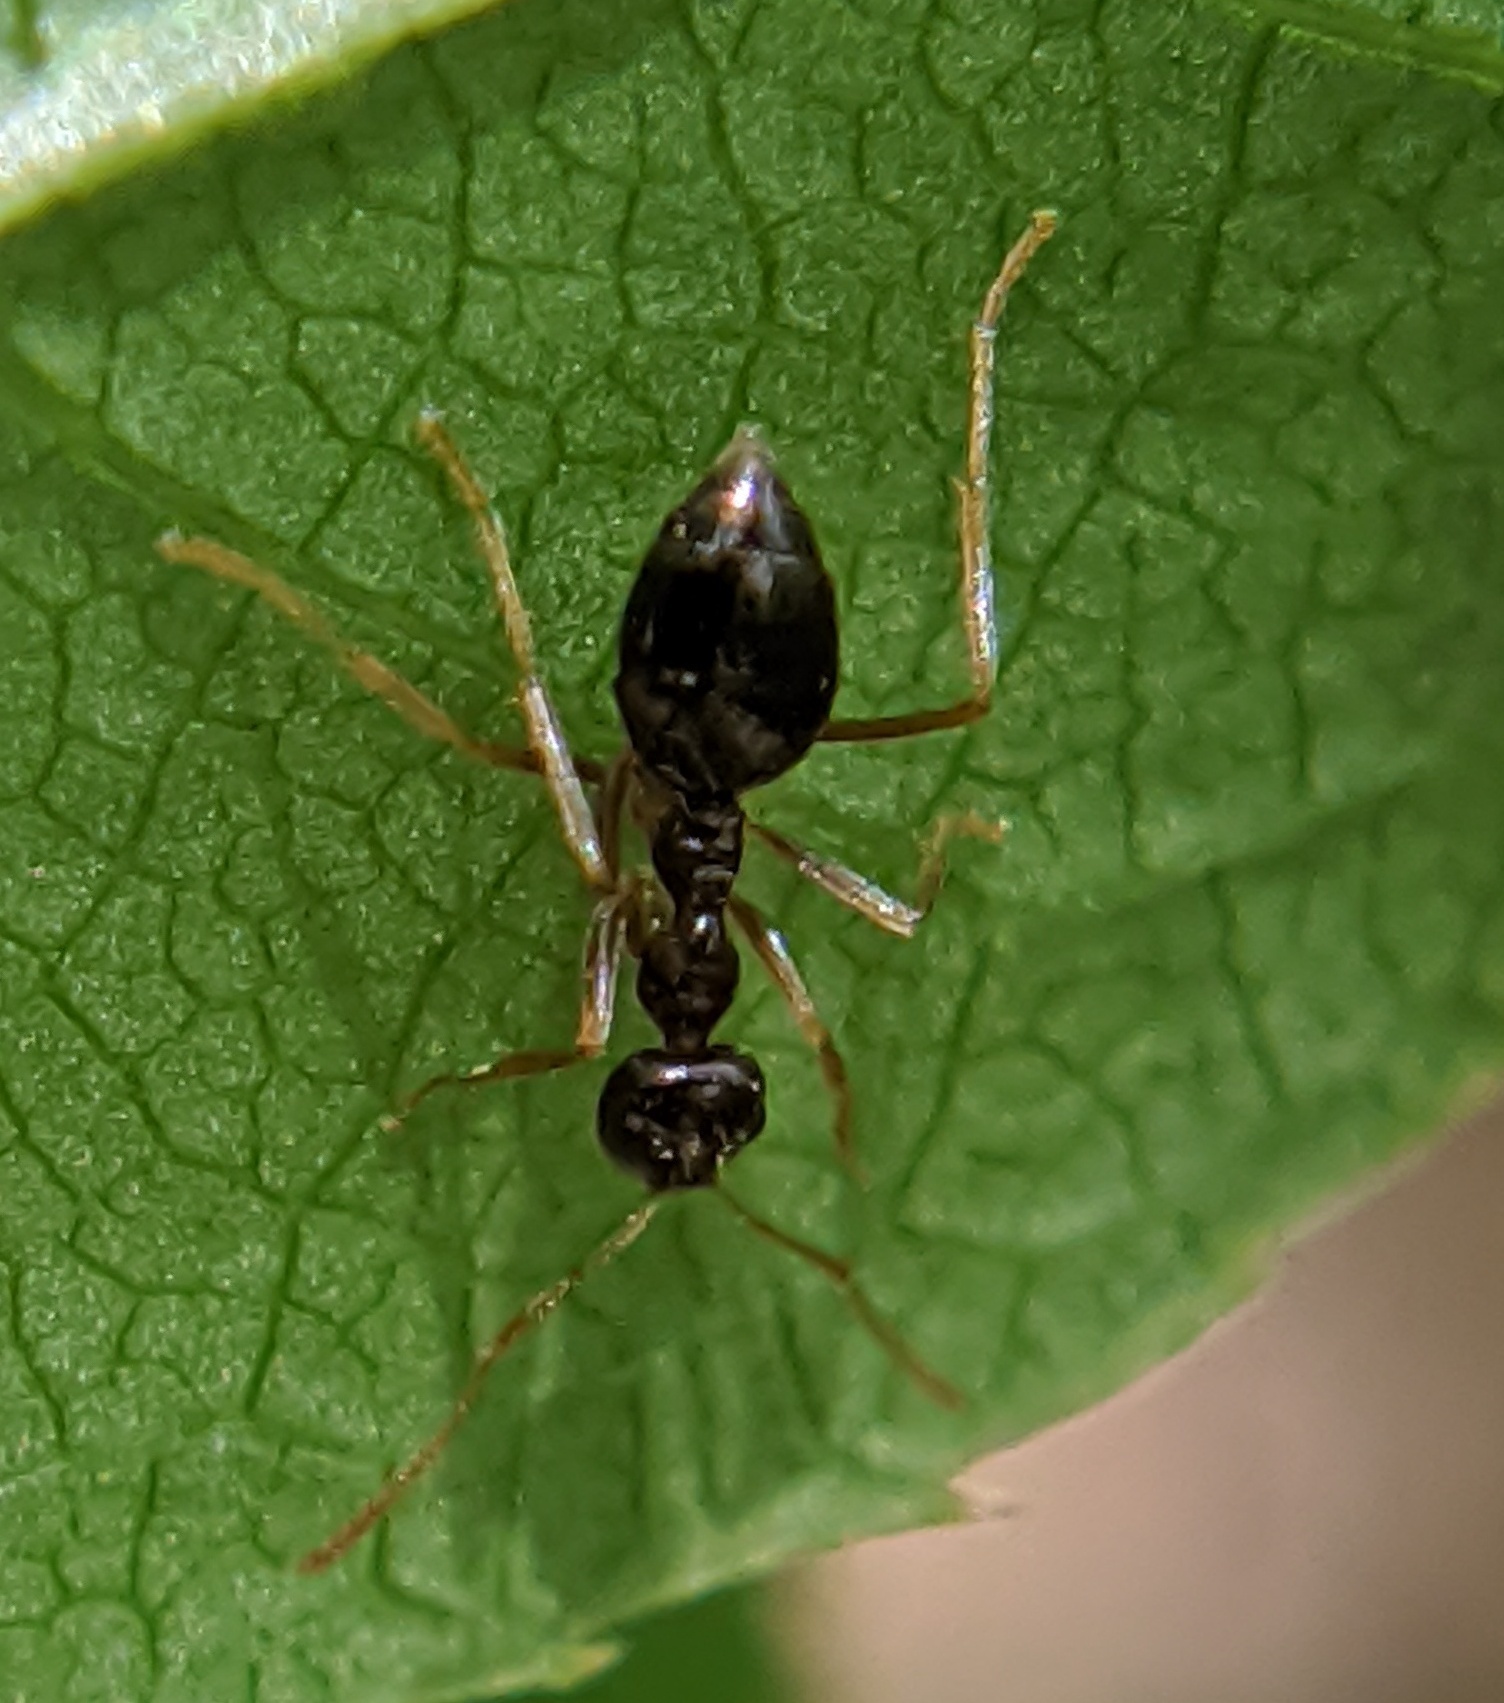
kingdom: Animalia
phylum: Arthropoda
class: Insecta
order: Hymenoptera
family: Formicidae
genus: Prenolepis
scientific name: Prenolepis imparis
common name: Small honey ant
